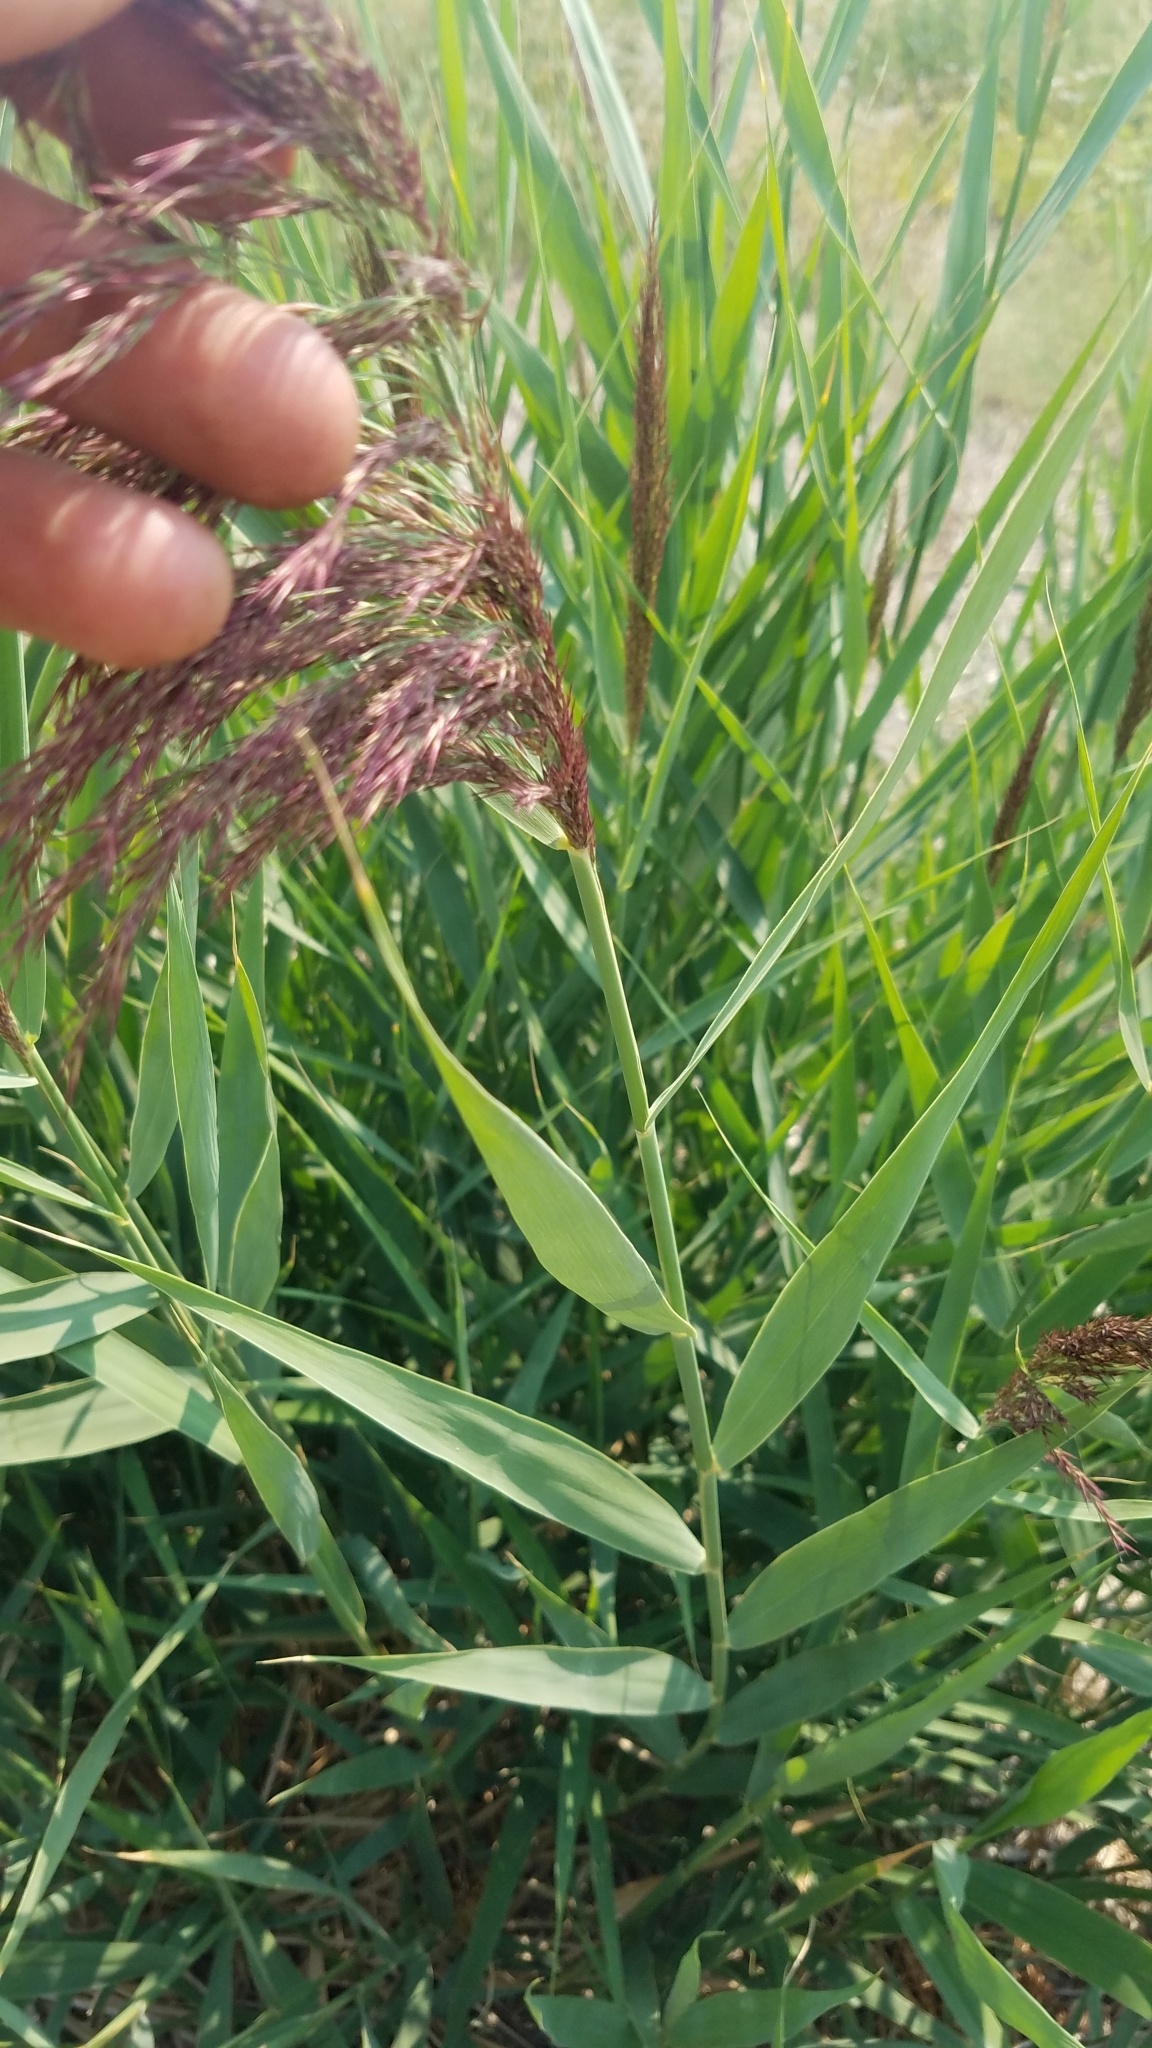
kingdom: Plantae
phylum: Tracheophyta
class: Liliopsida
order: Poales
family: Poaceae
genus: Phragmites
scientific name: Phragmites australis
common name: Common reed
